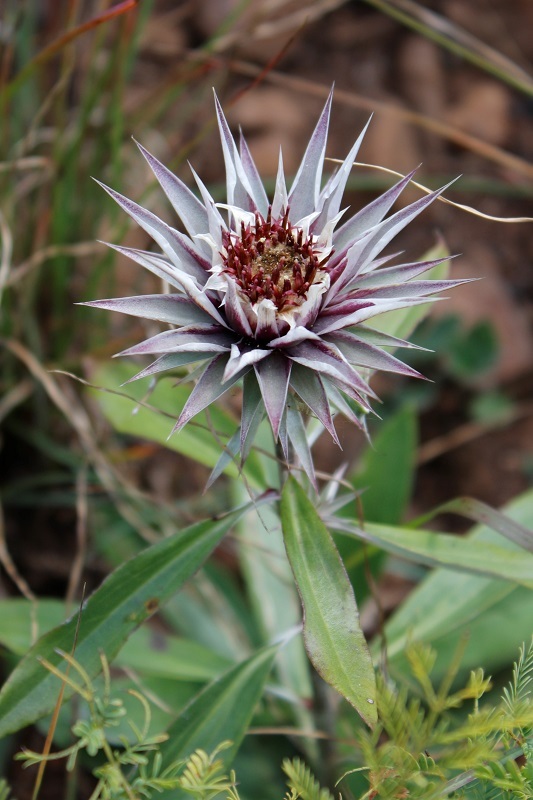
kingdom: Plantae
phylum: Tracheophyta
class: Magnoliopsida
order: Asterales
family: Asteraceae
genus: Macledium
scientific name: Macledium zeyheri
